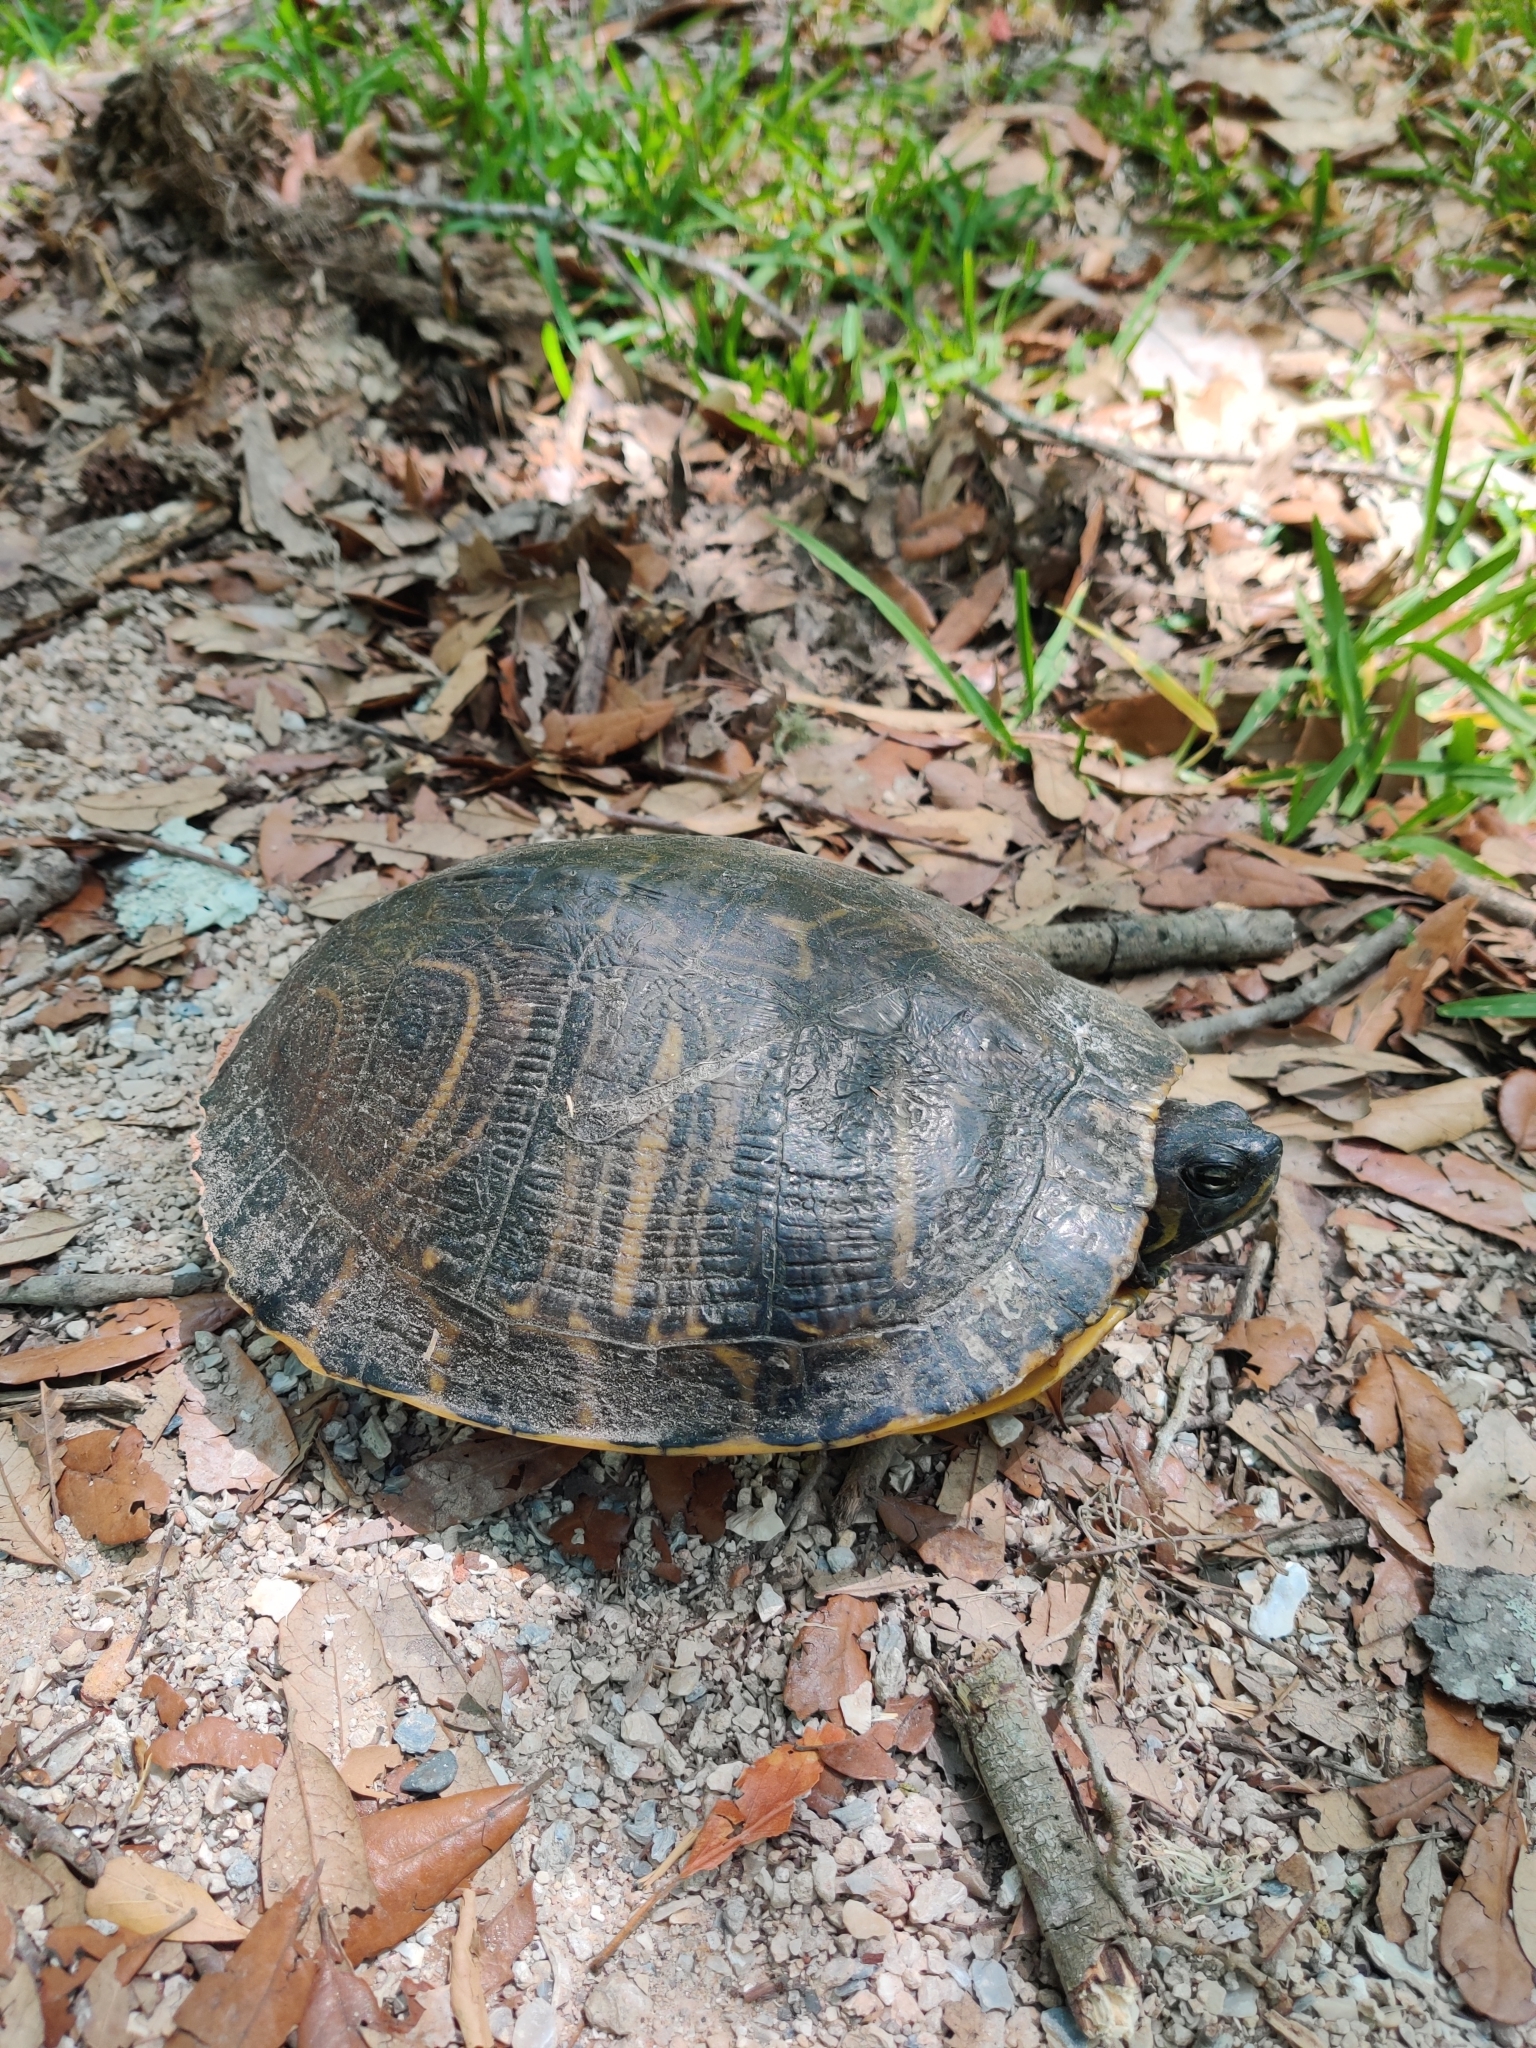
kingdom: Animalia
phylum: Chordata
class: Testudines
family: Emydidae
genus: Trachemys
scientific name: Trachemys scripta
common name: Slider
